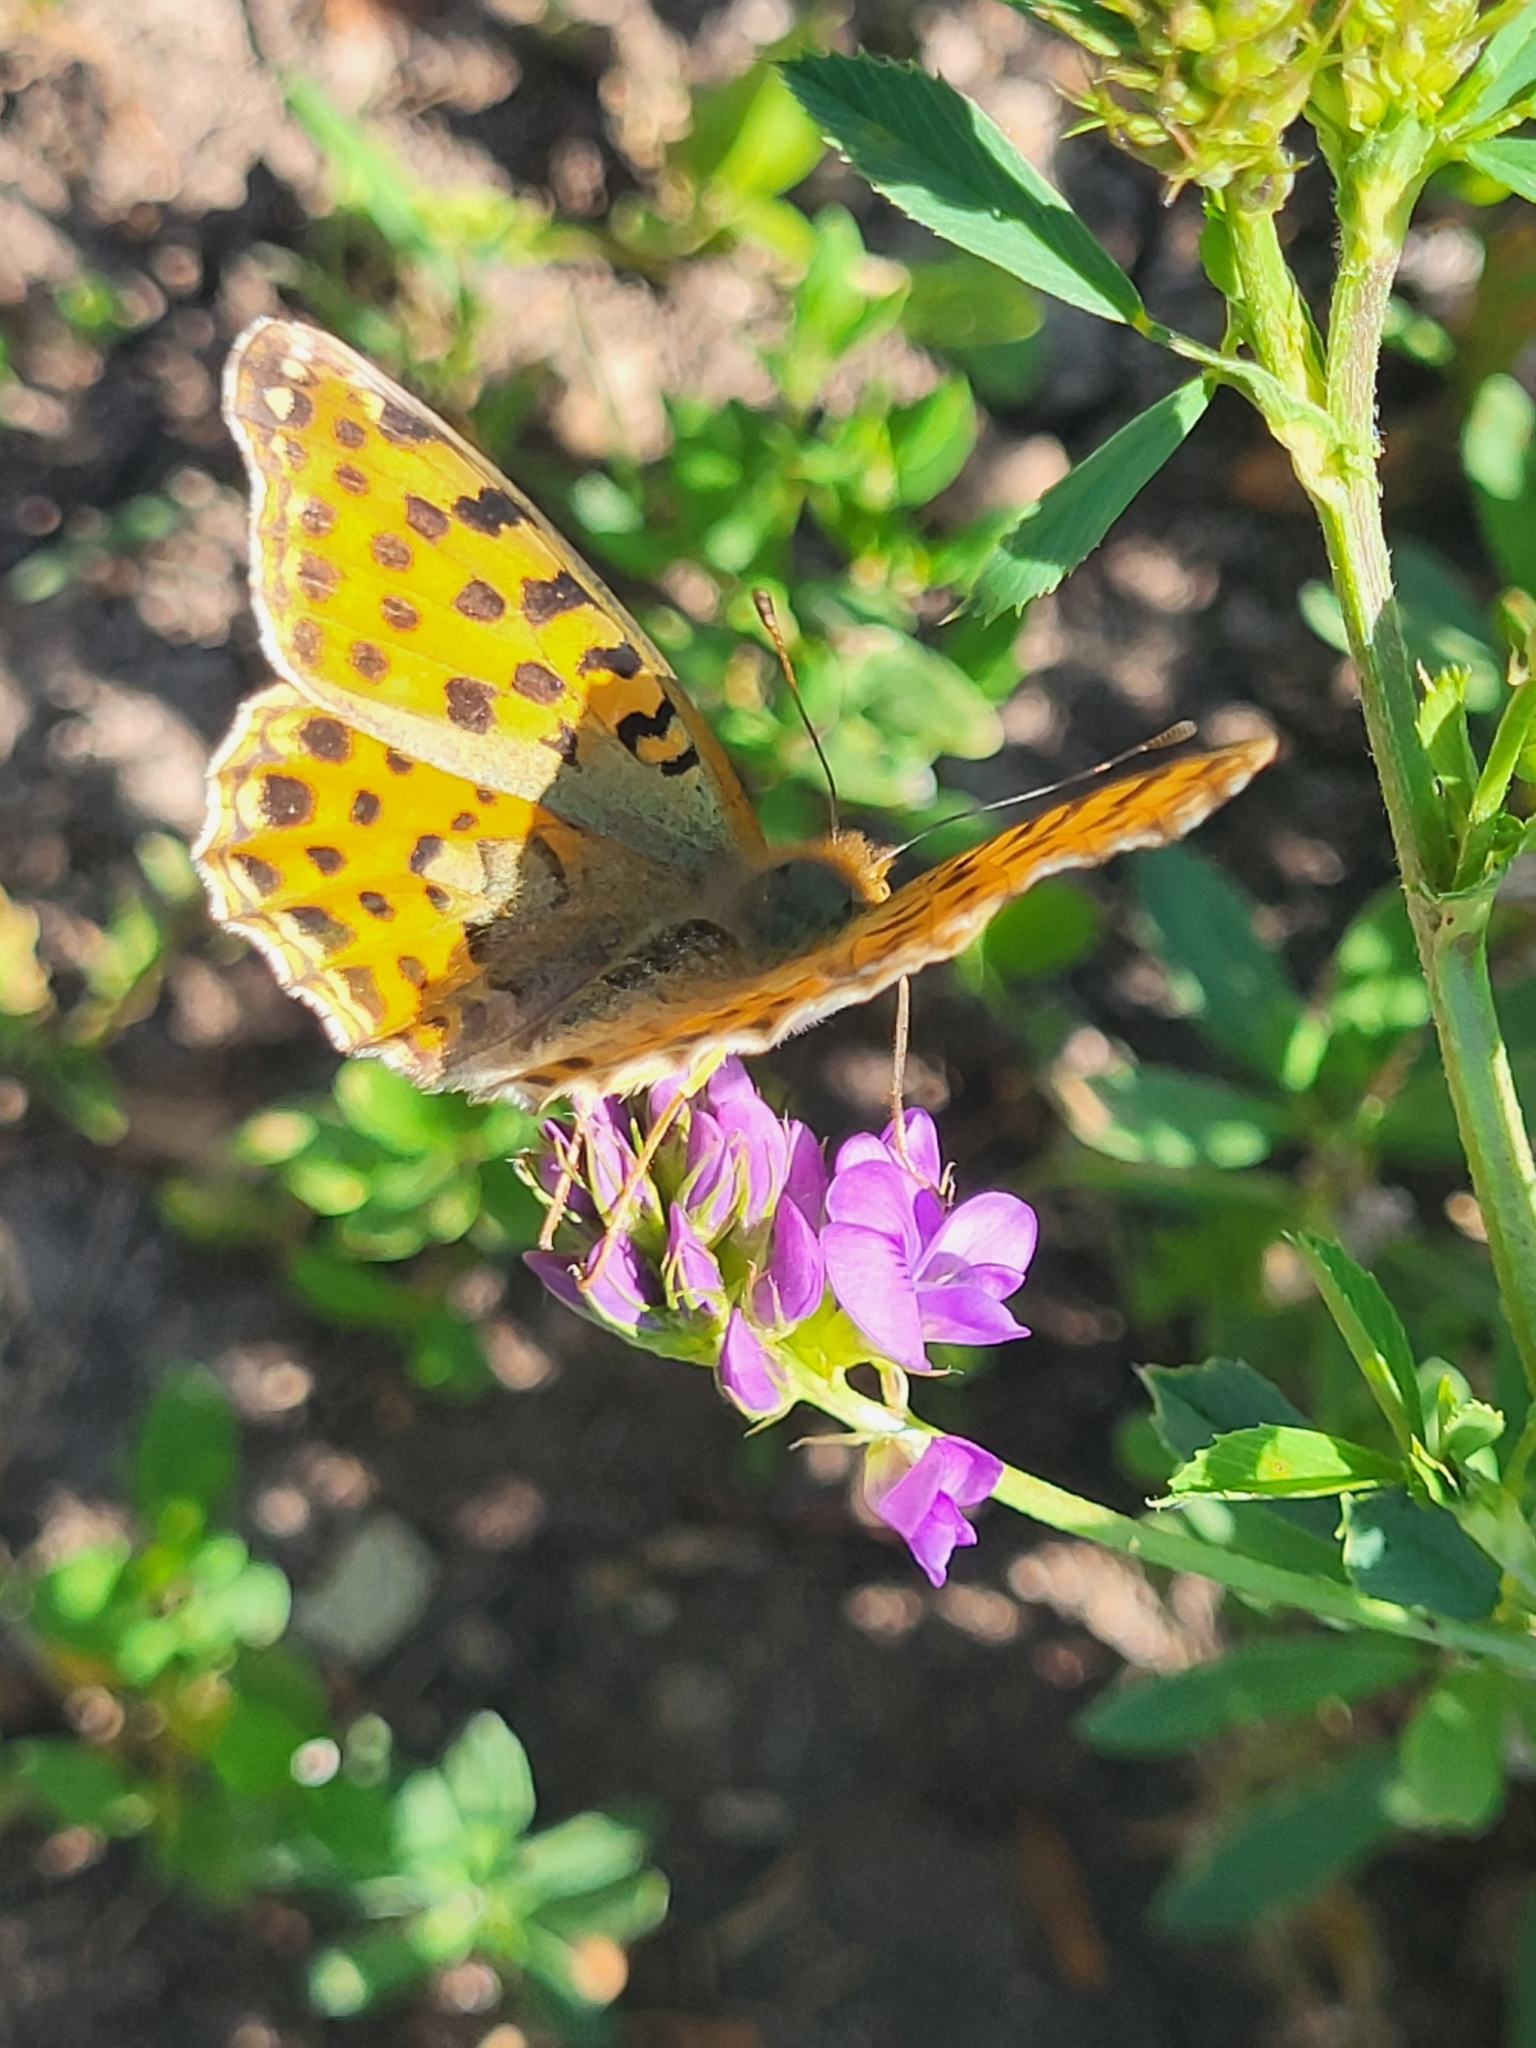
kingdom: Animalia
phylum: Arthropoda
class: Insecta
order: Lepidoptera
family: Nymphalidae
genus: Issoria
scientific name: Issoria lathonia
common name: Queen of spain fritillary
